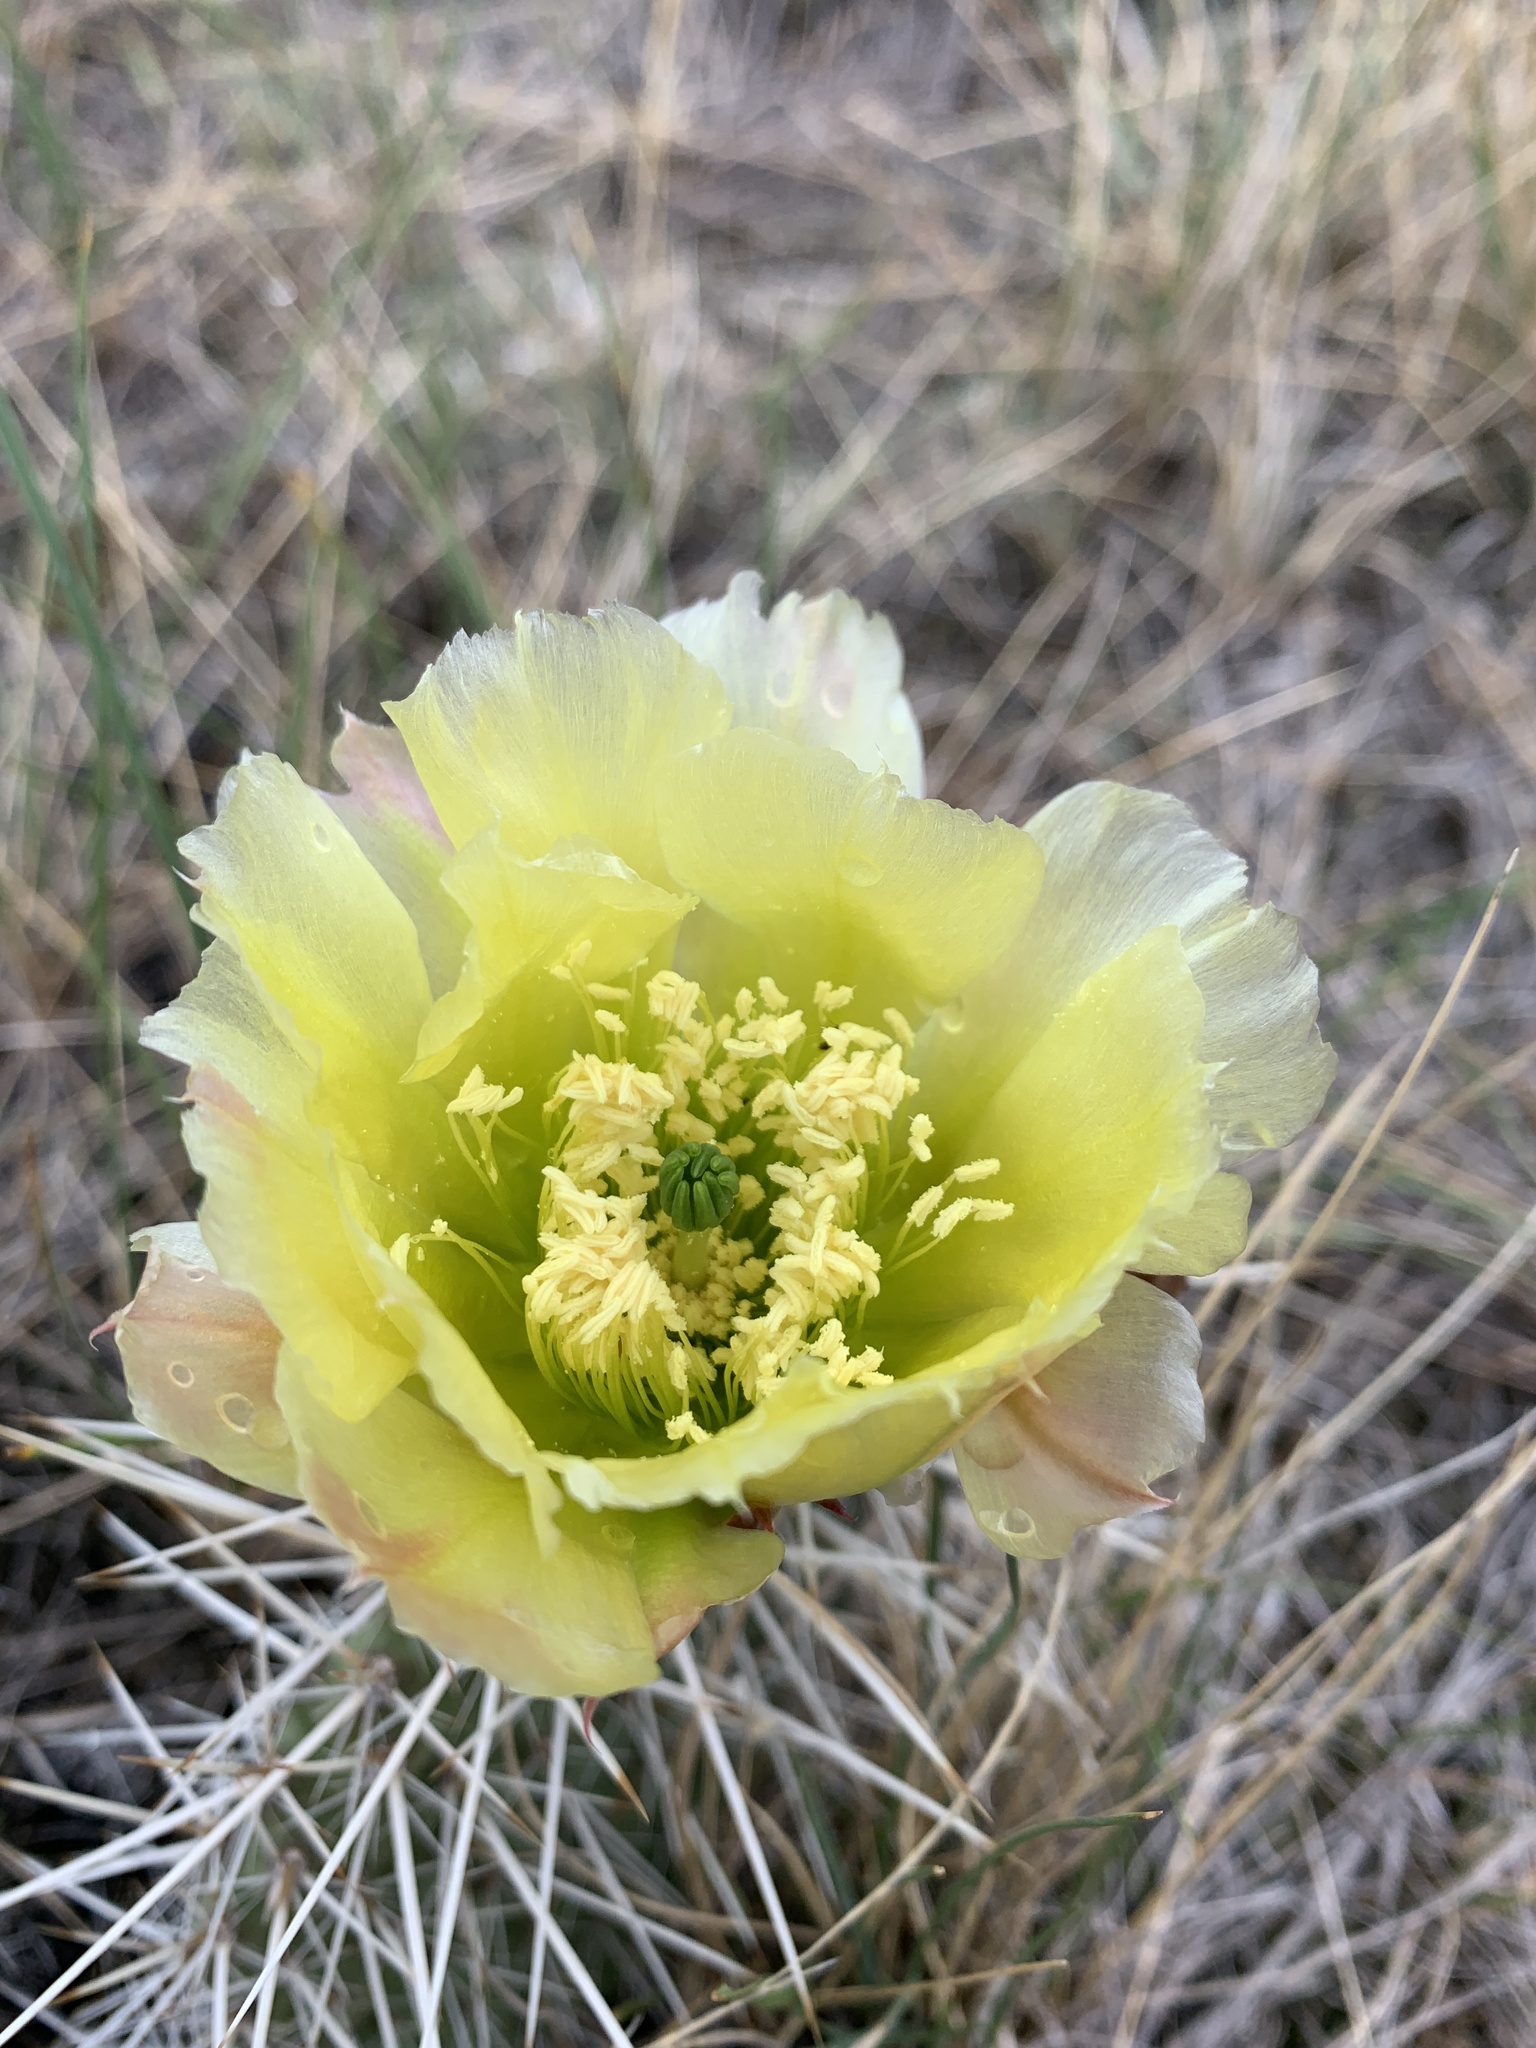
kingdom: Plantae
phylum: Tracheophyta
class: Magnoliopsida
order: Caryophyllales
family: Cactaceae
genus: Opuntia
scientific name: Opuntia polyacantha
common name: Plains prickly-pear
